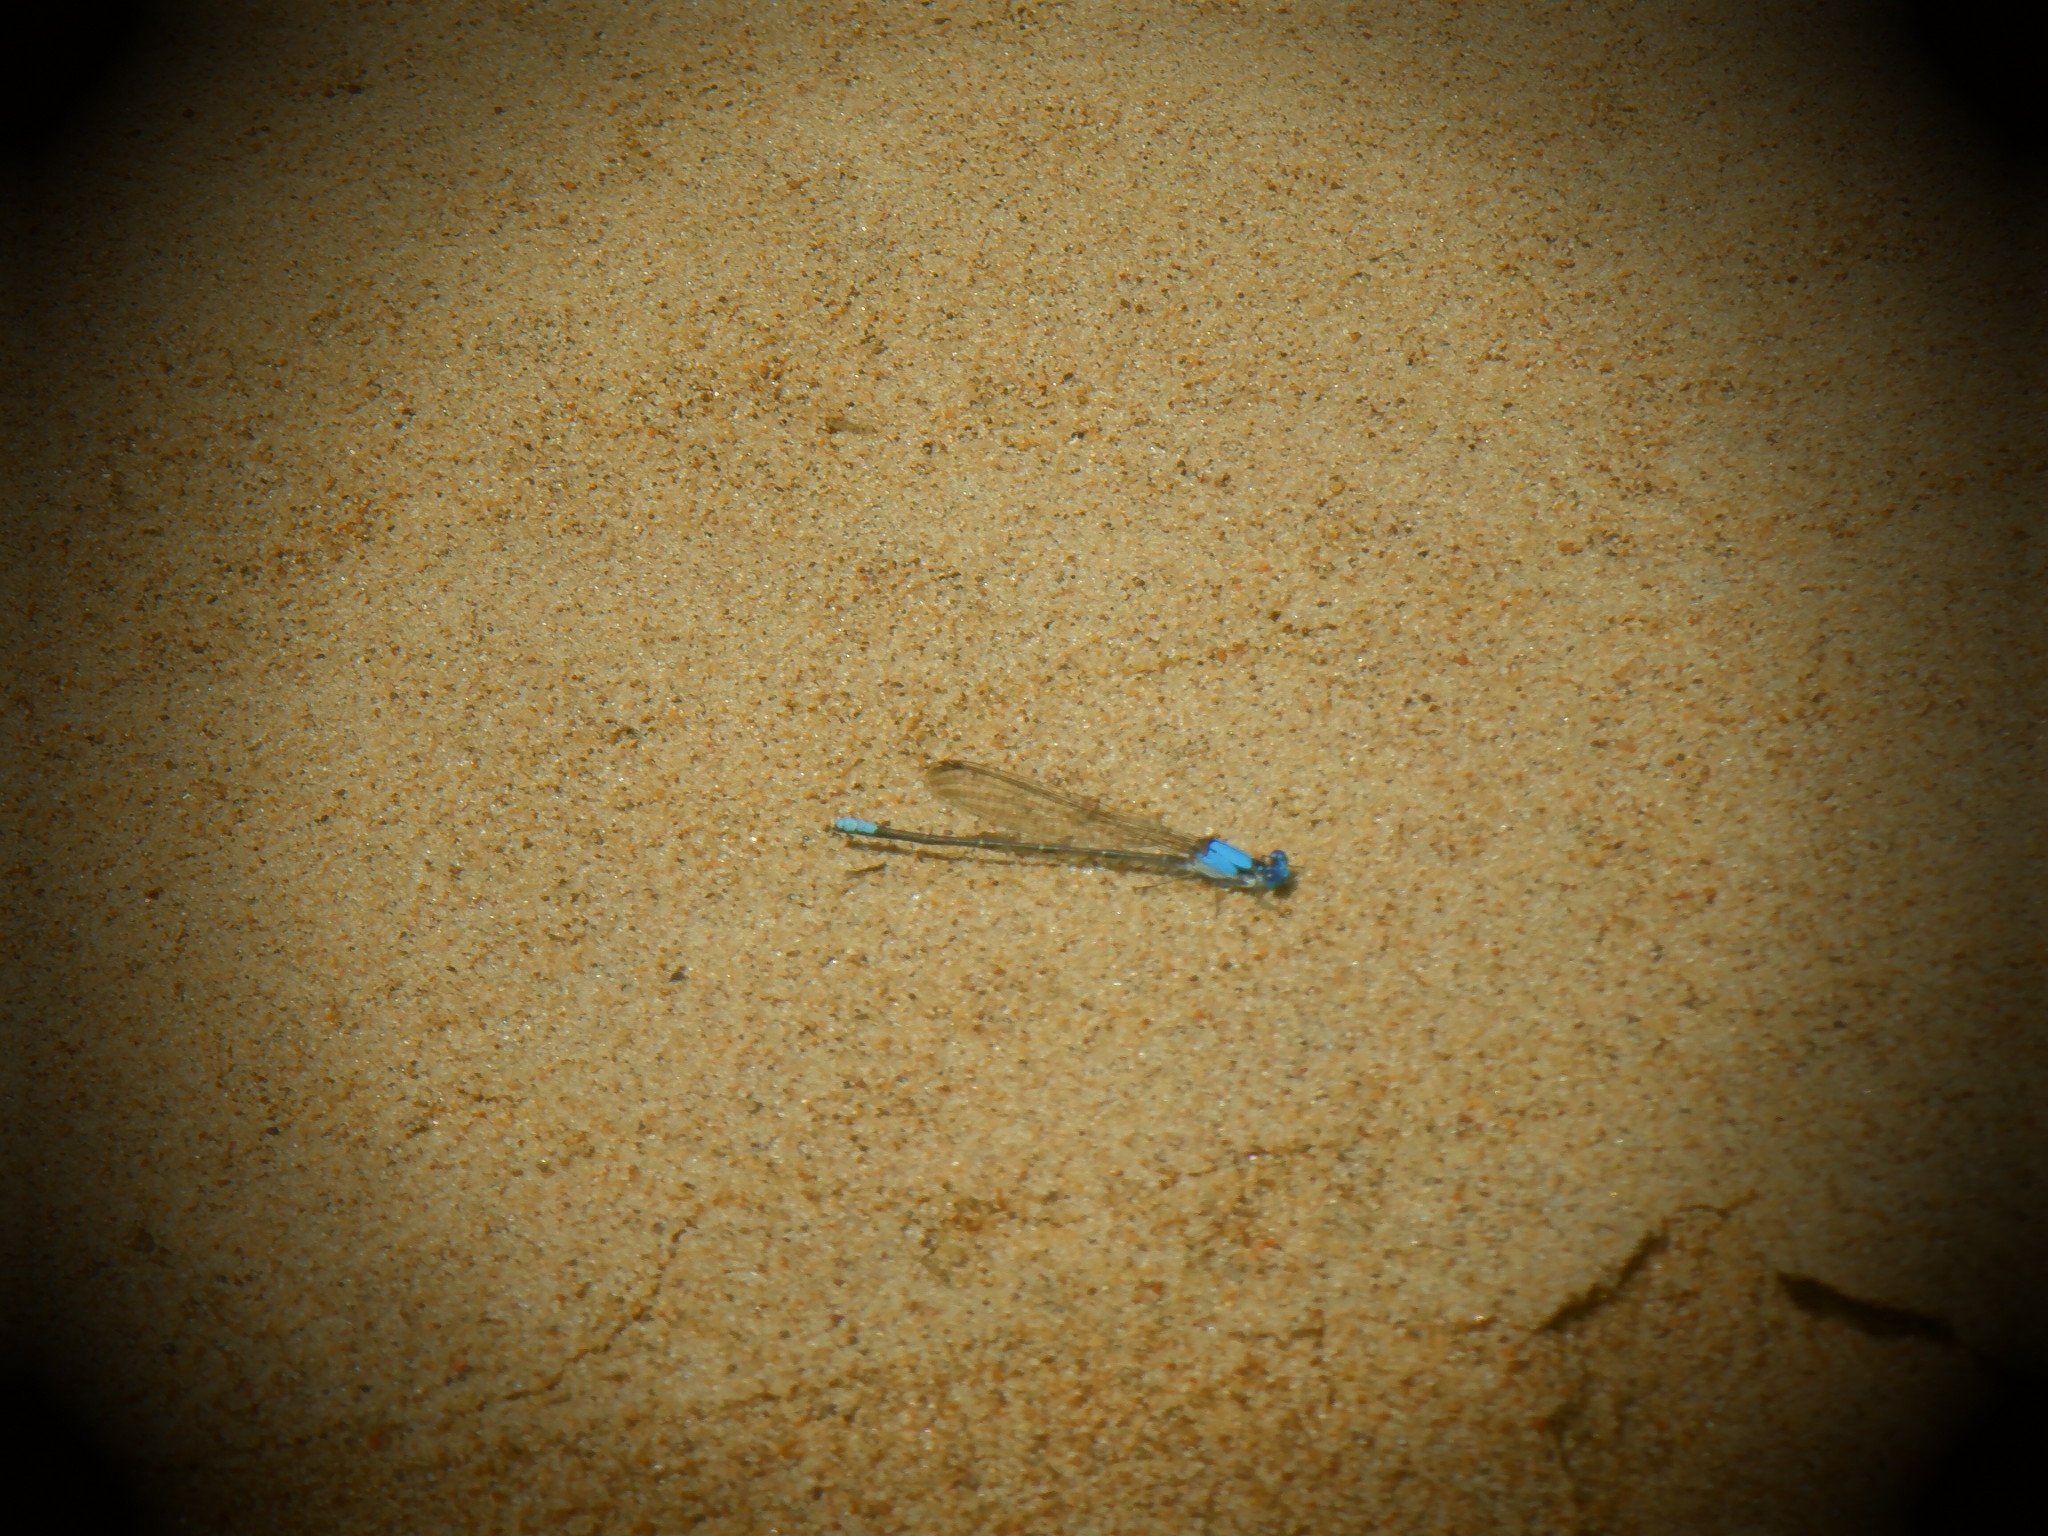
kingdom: Animalia
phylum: Arthropoda
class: Insecta
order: Odonata
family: Coenagrionidae
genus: Argia
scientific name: Argia apicalis
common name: Blue-fronted dancer
